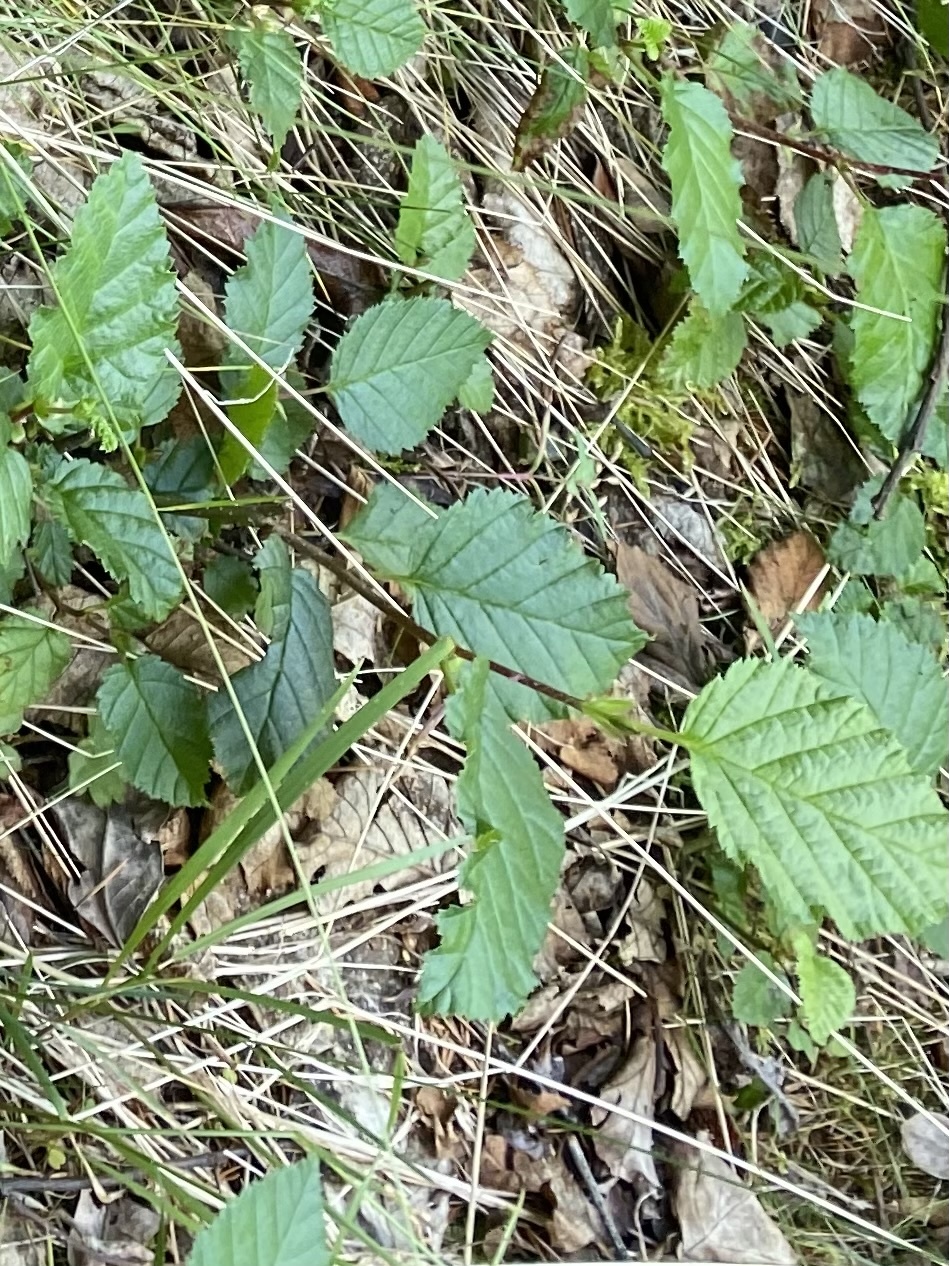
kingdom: Plantae
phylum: Tracheophyta
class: Magnoliopsida
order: Fagales
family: Betulaceae
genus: Alnus
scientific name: Alnus alnobetula
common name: Green alder
